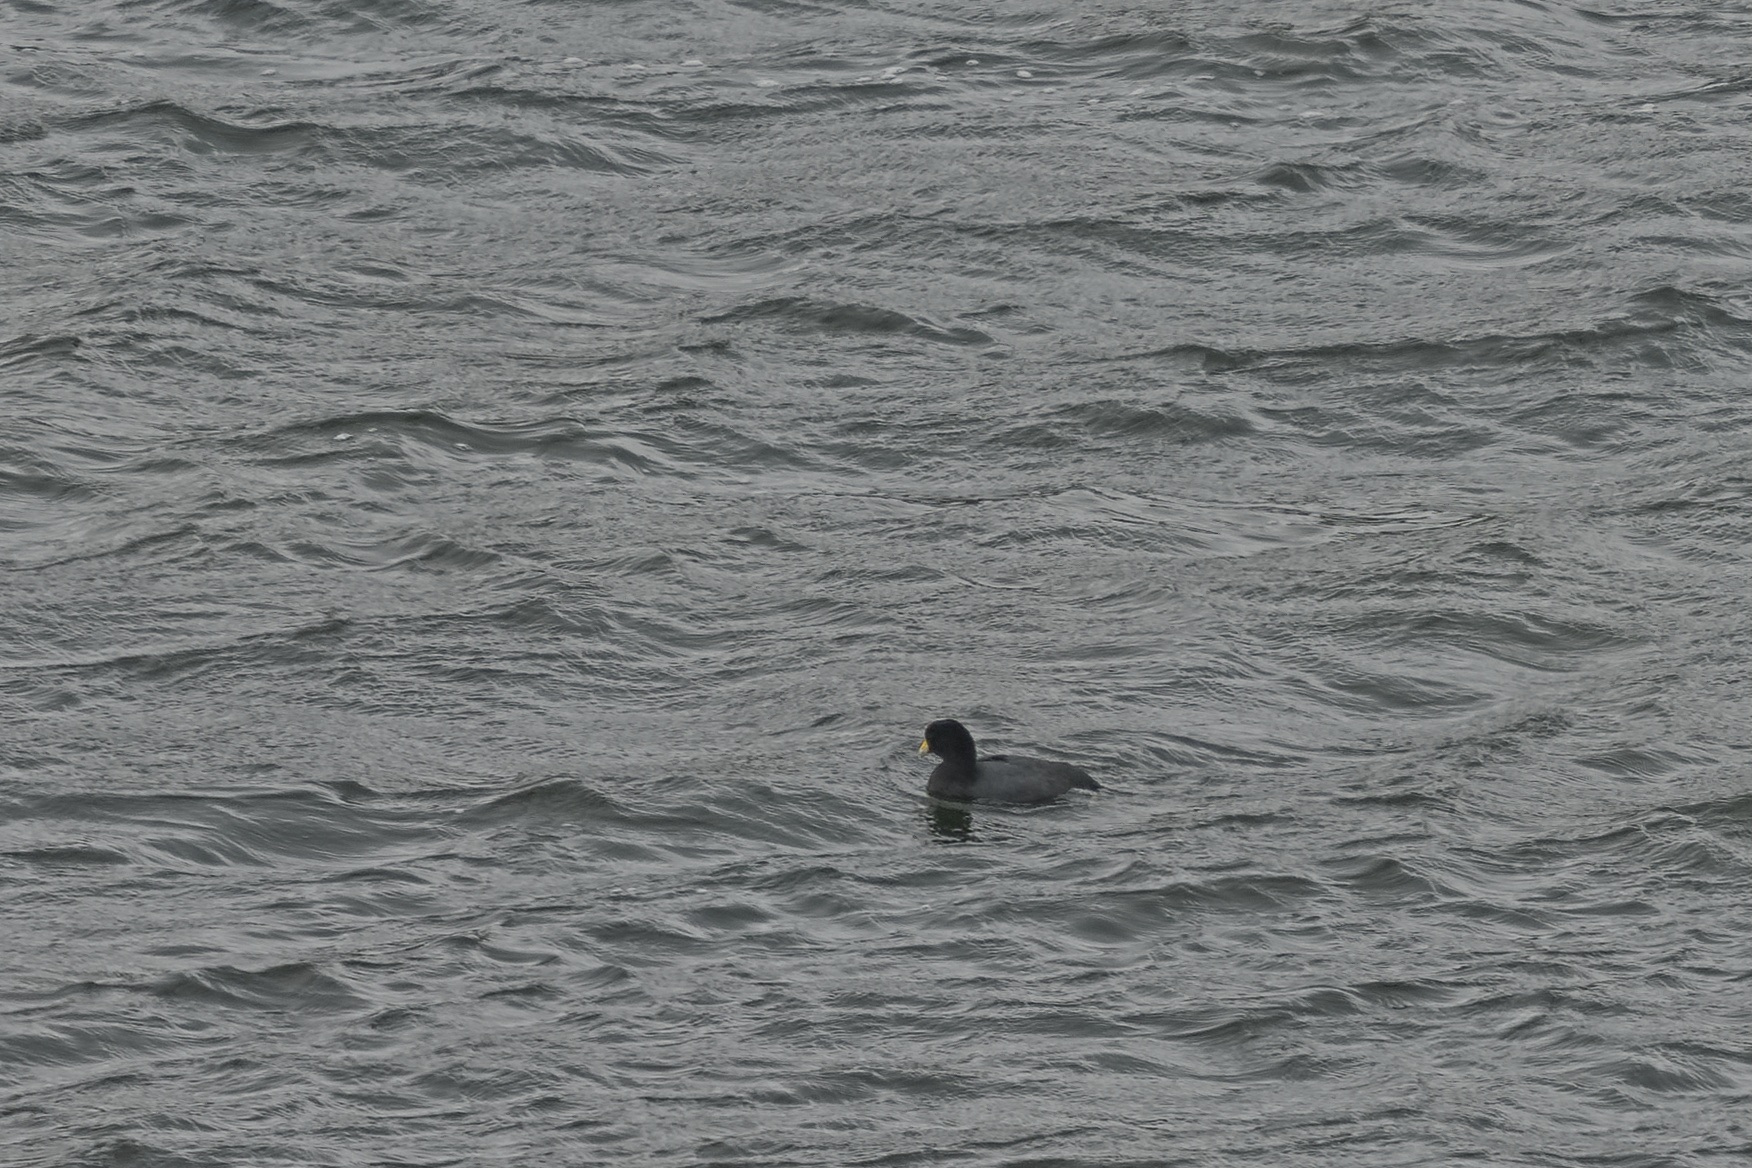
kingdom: Animalia
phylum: Chordata
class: Aves
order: Gruiformes
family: Rallidae
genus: Fulica
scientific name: Fulica ardesiaca
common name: Andean coot
